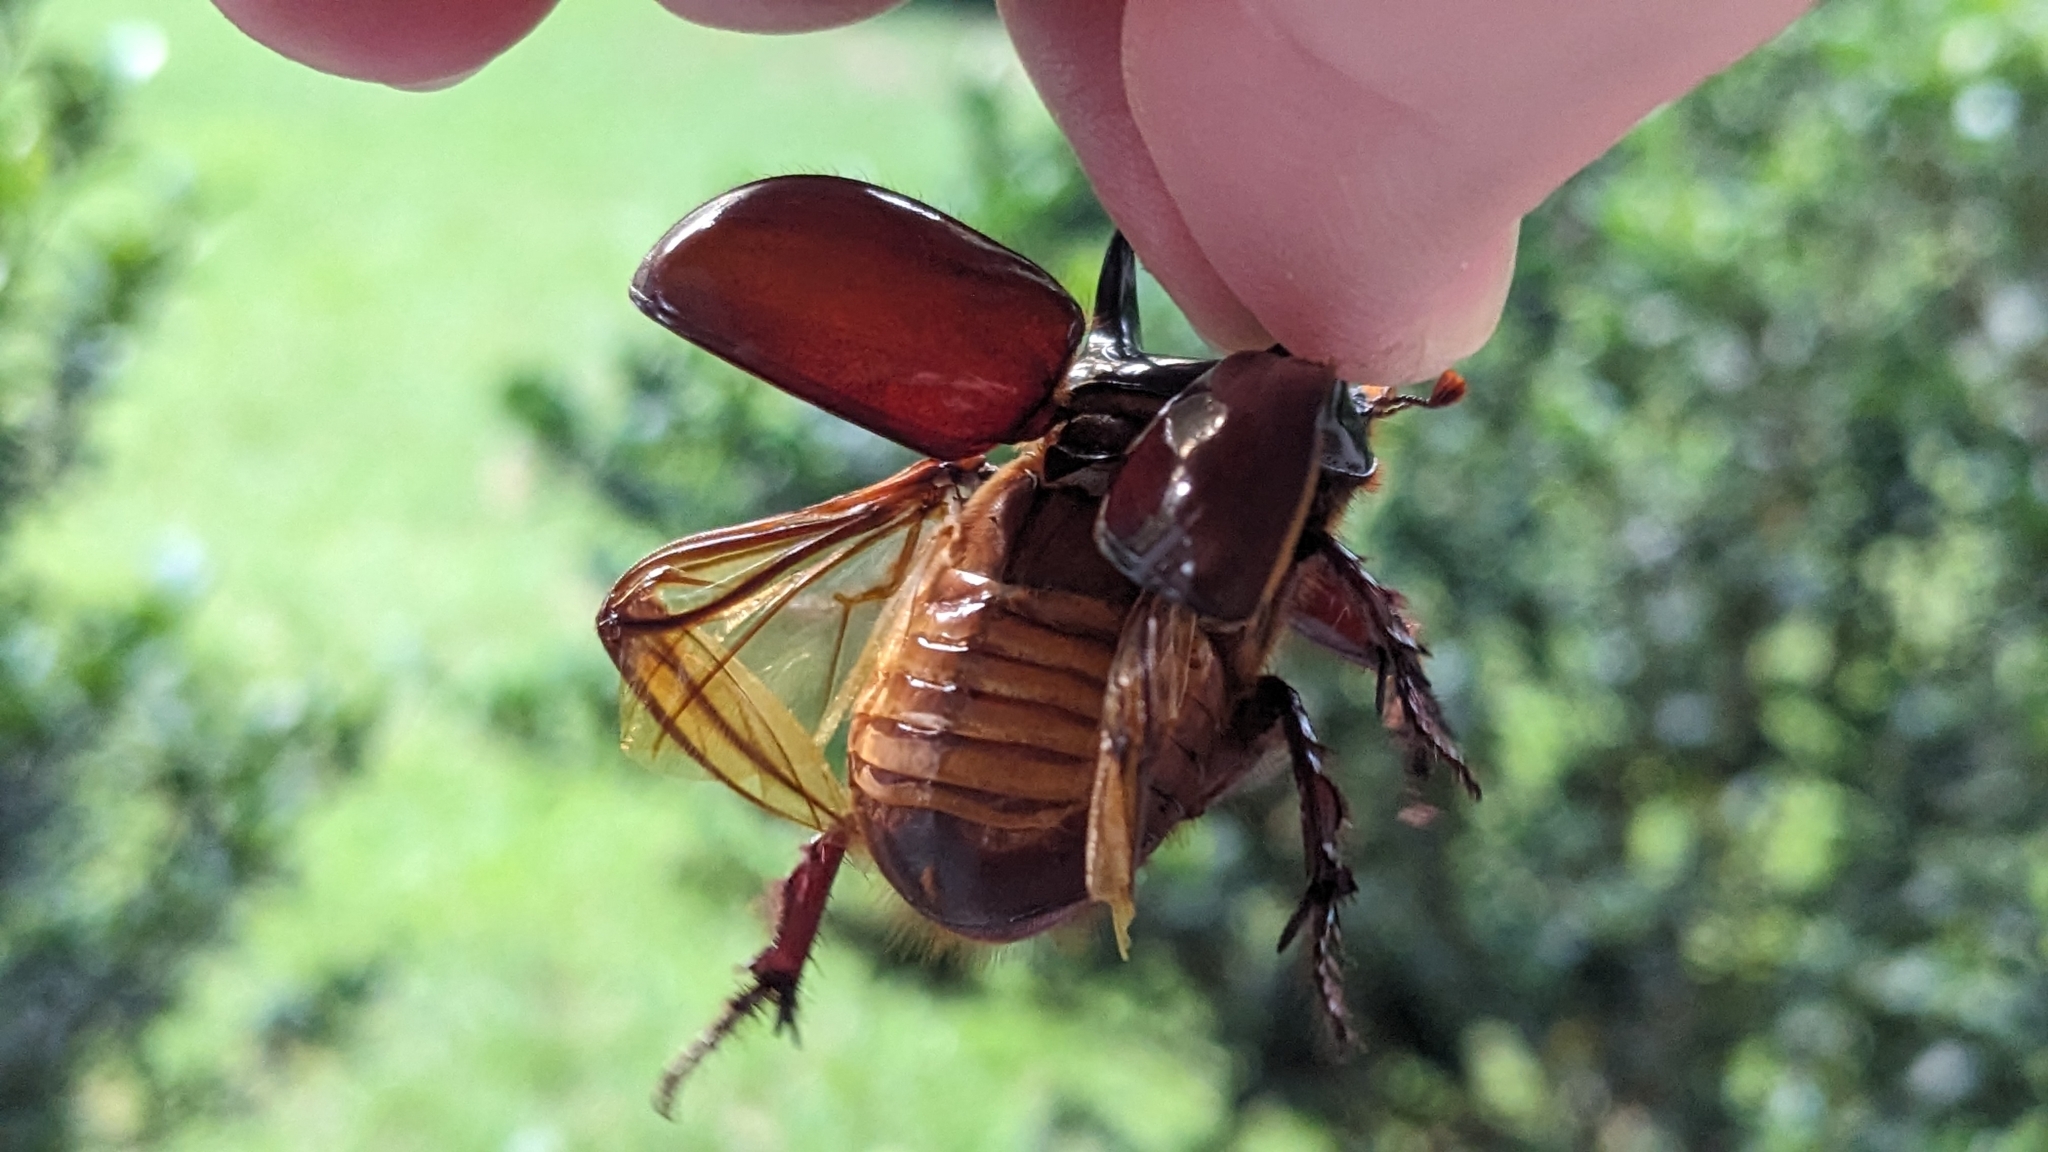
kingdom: Animalia
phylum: Arthropoda
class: Insecta
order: Coleoptera
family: Scarabaeidae
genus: Strategus
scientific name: Strategus antaeus
